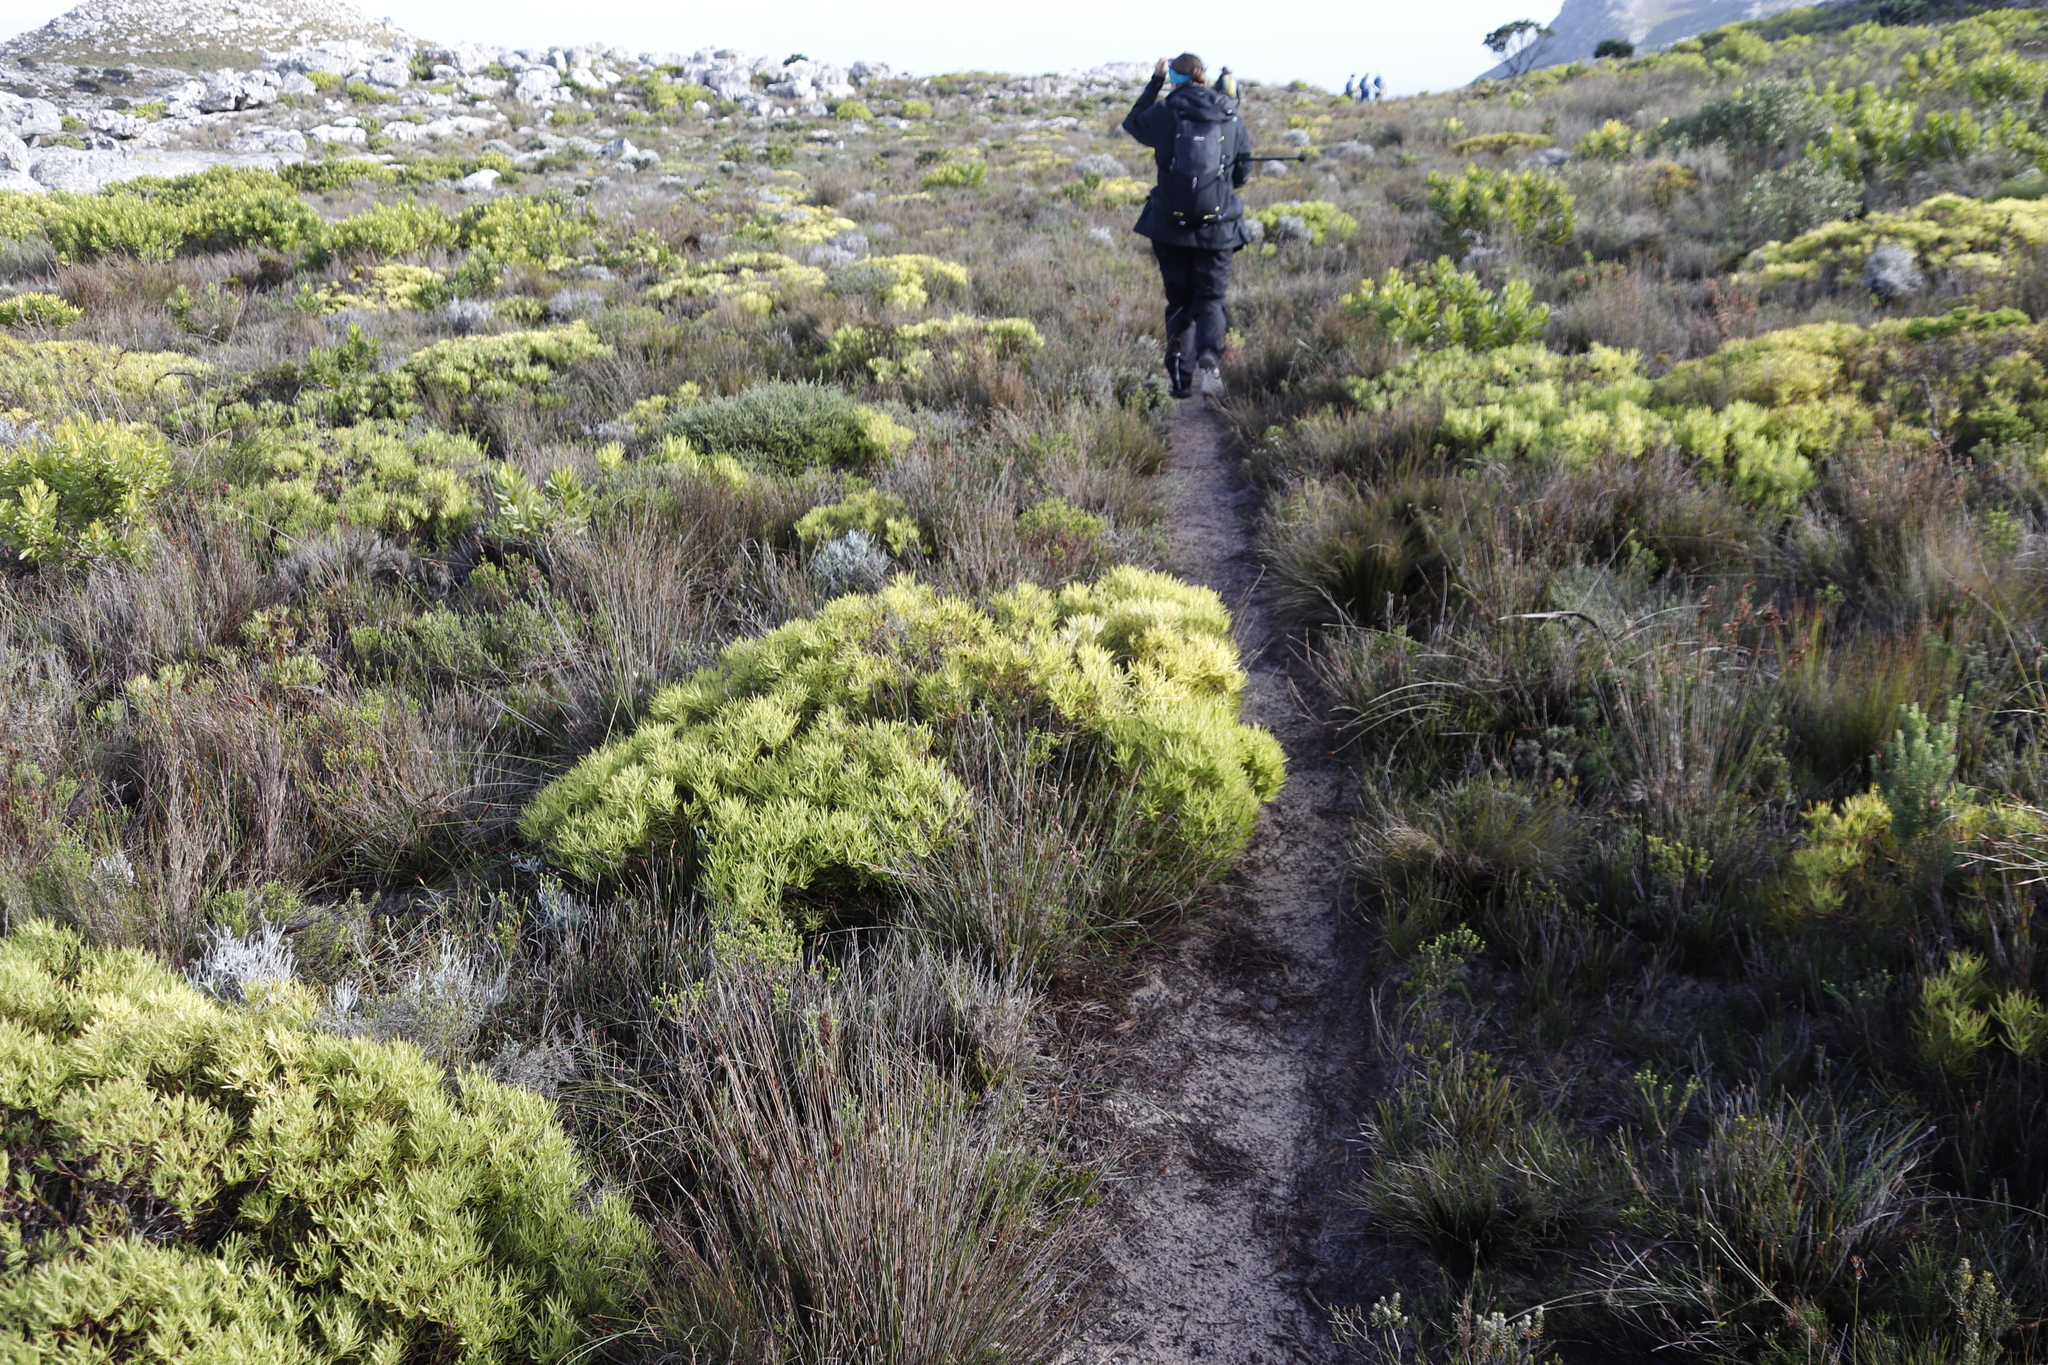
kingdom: Plantae
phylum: Tracheophyta
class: Magnoliopsida
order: Proteales
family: Proteaceae
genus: Leucadendron
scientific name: Leucadendron salignum
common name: Common sunshine conebush
